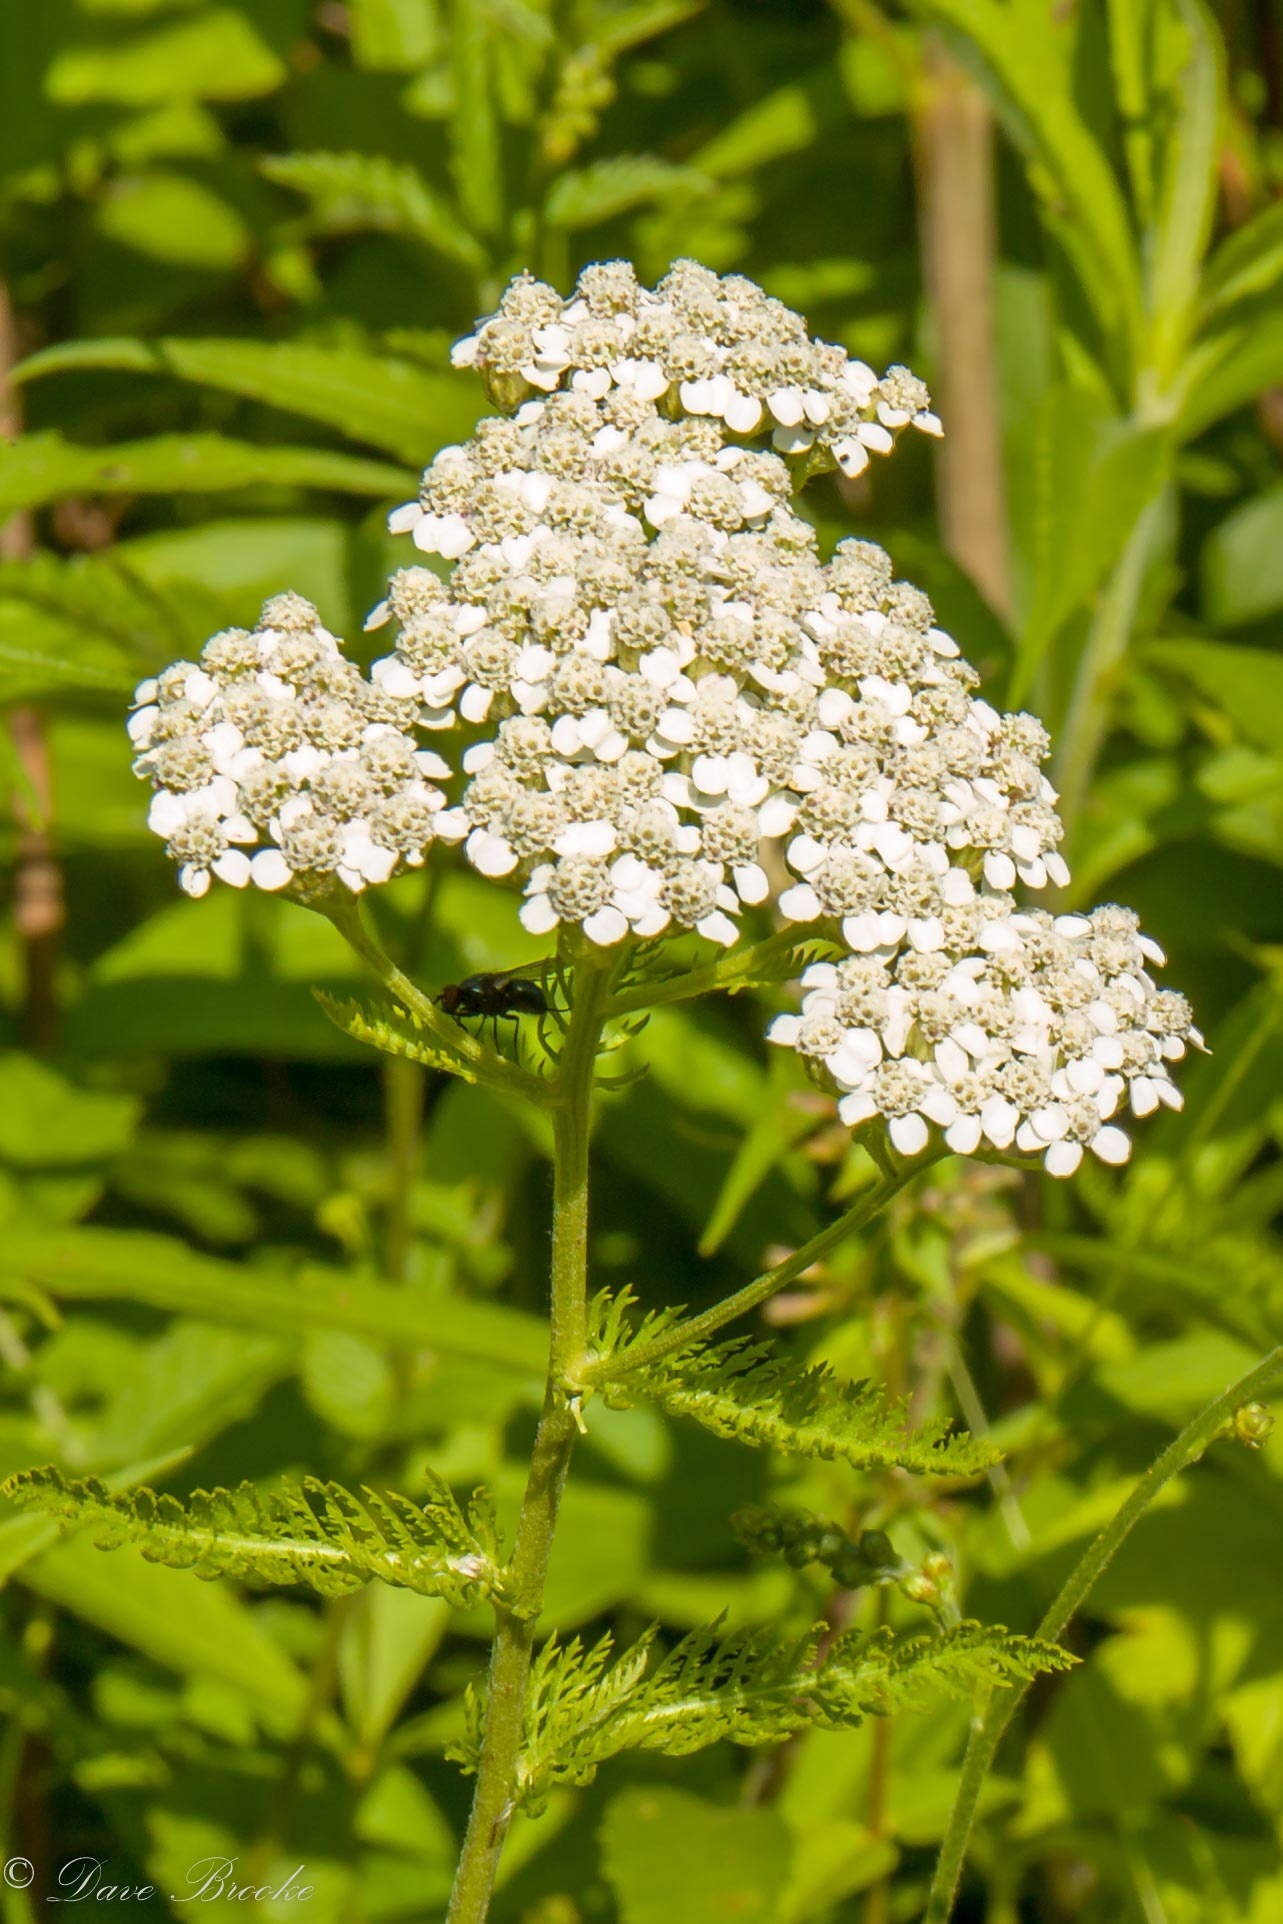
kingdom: Plantae
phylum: Tracheophyta
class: Magnoliopsida
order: Asterales
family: Asteraceae
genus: Achillea
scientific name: Achillea millefolium
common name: Yarrow
